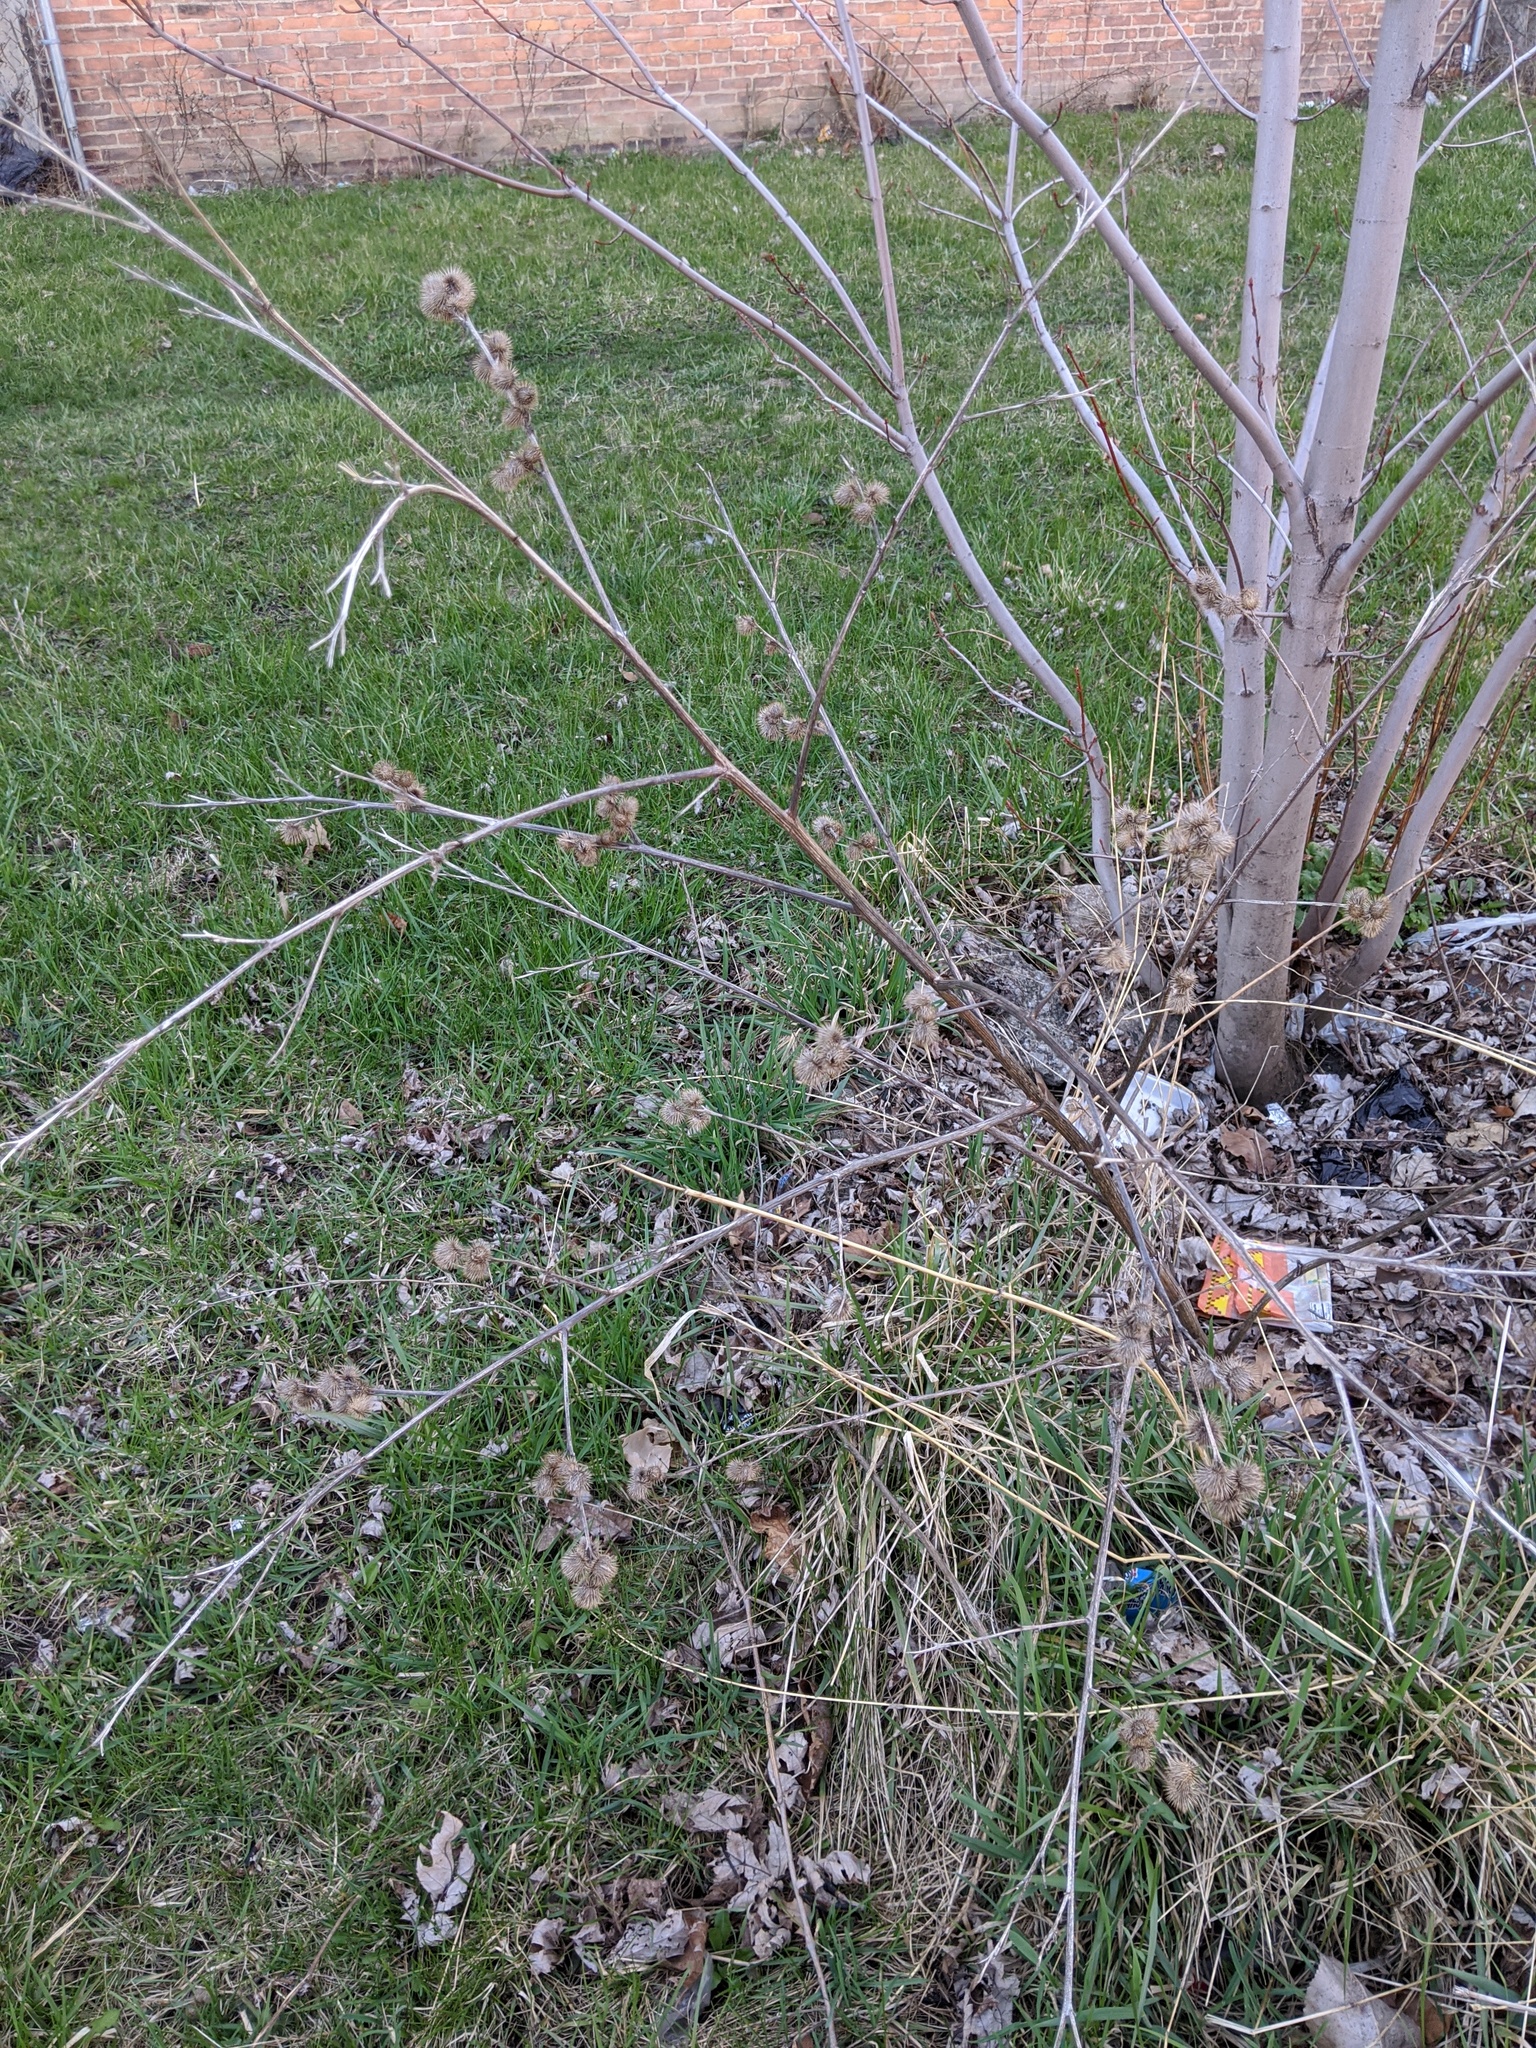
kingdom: Plantae
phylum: Tracheophyta
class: Magnoliopsida
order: Asterales
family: Asteraceae
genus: Arctium
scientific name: Arctium minus
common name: Lesser burdock
